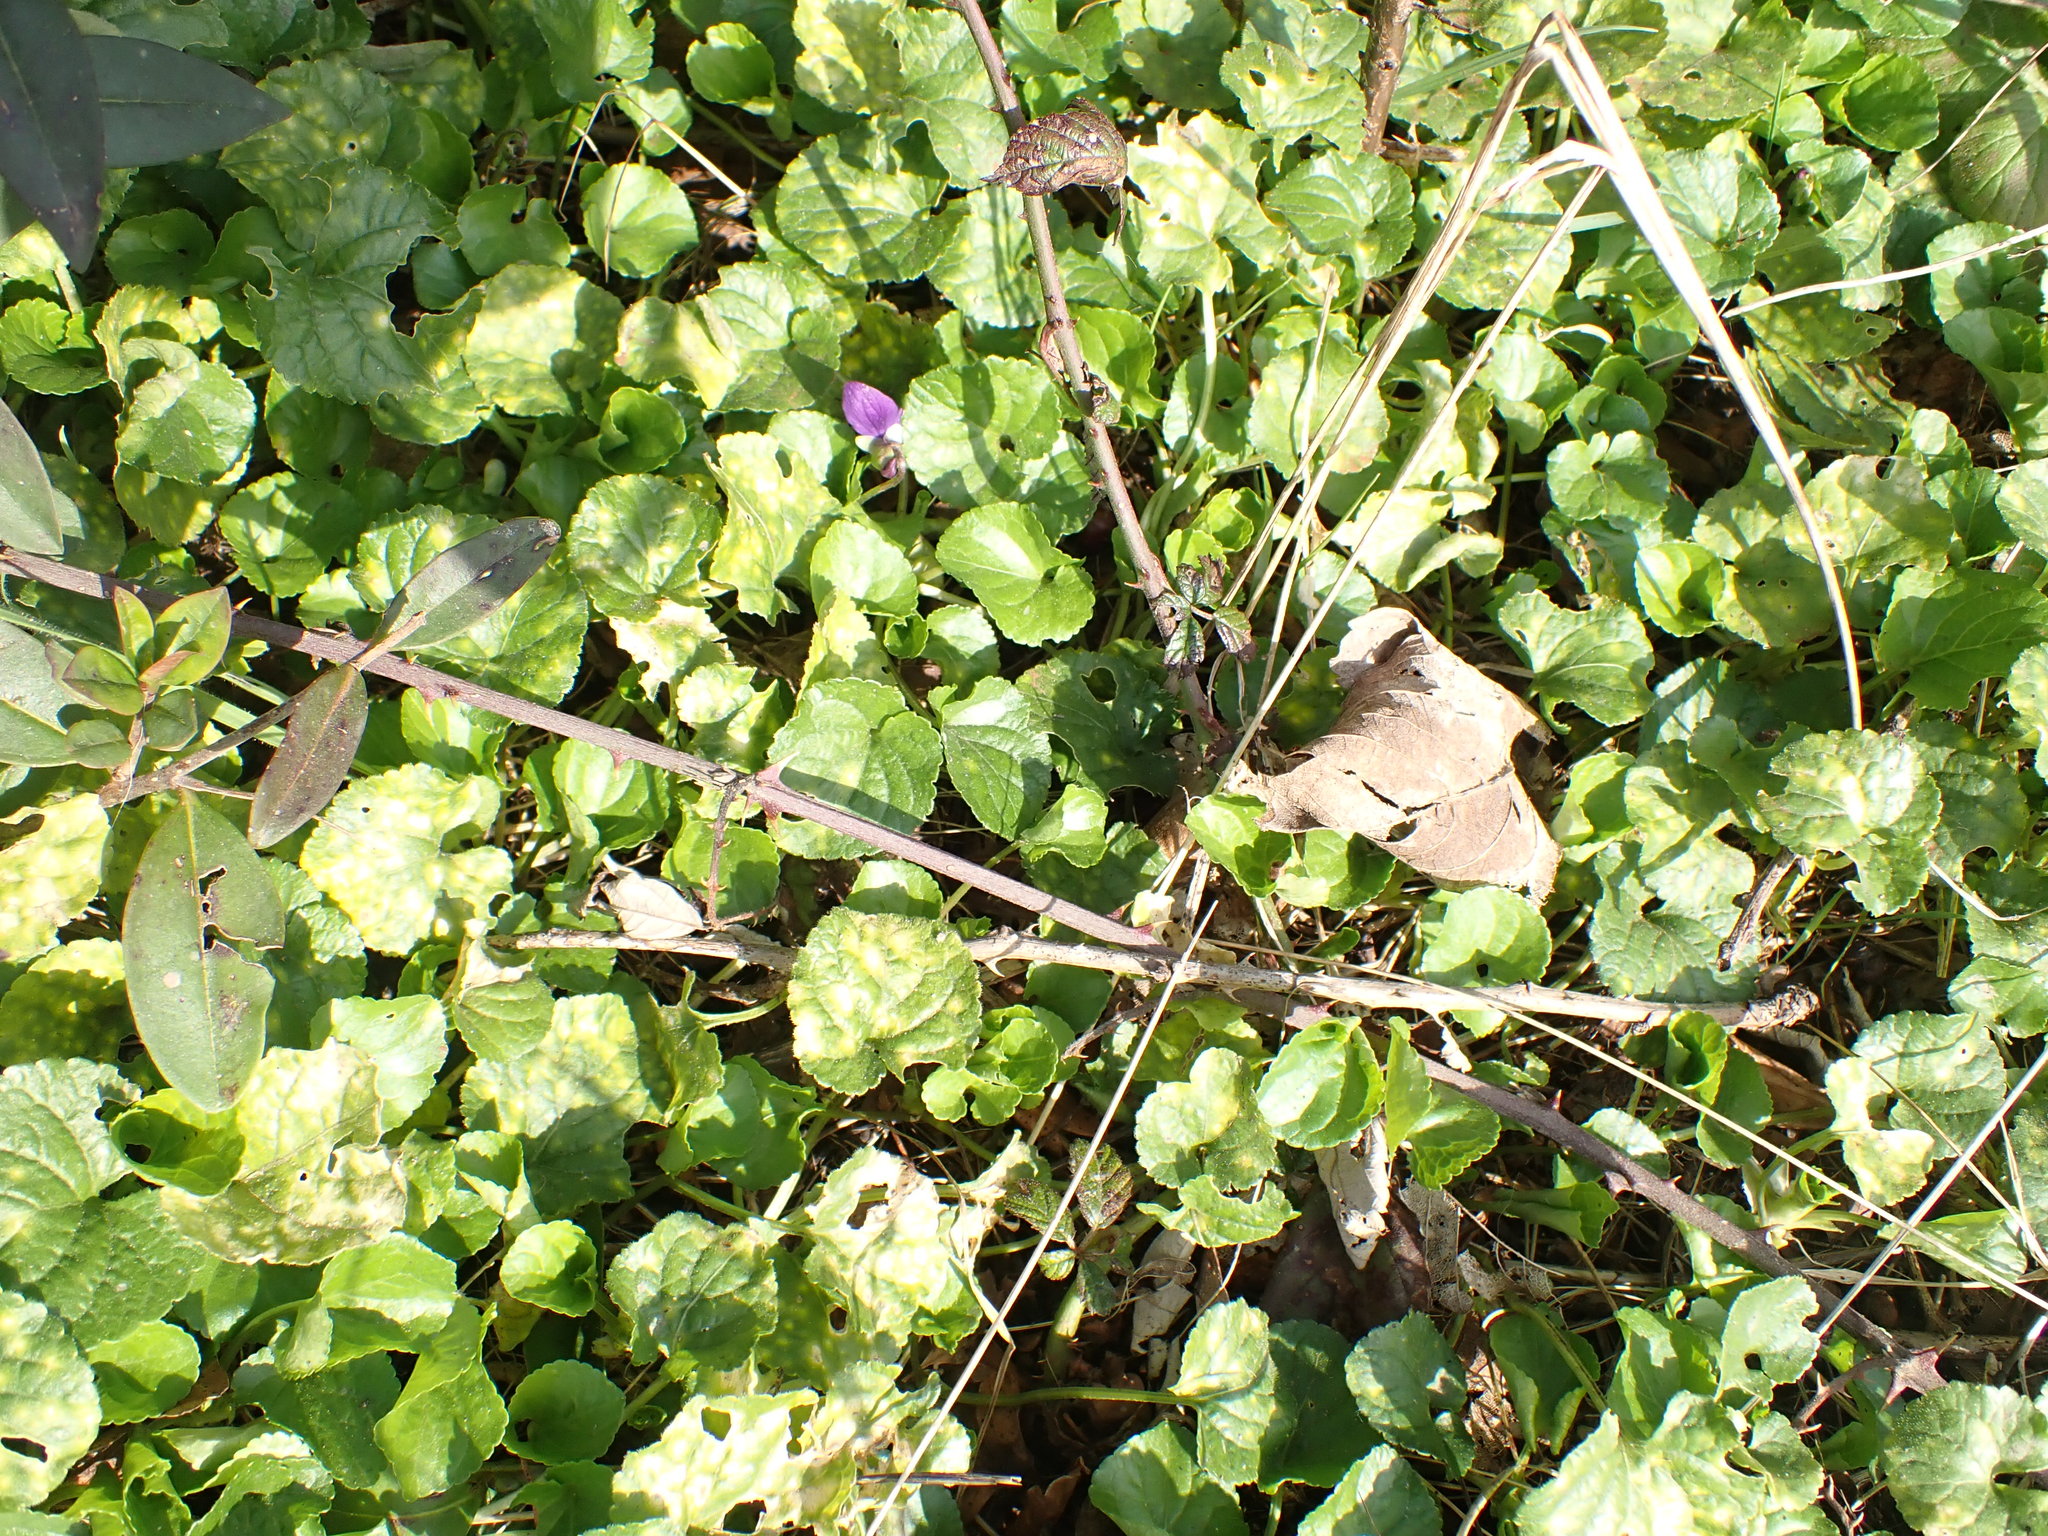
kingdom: Plantae
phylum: Tracheophyta
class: Magnoliopsida
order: Malpighiales
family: Violaceae
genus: Viola
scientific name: Viola odorata
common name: Sweet violet
